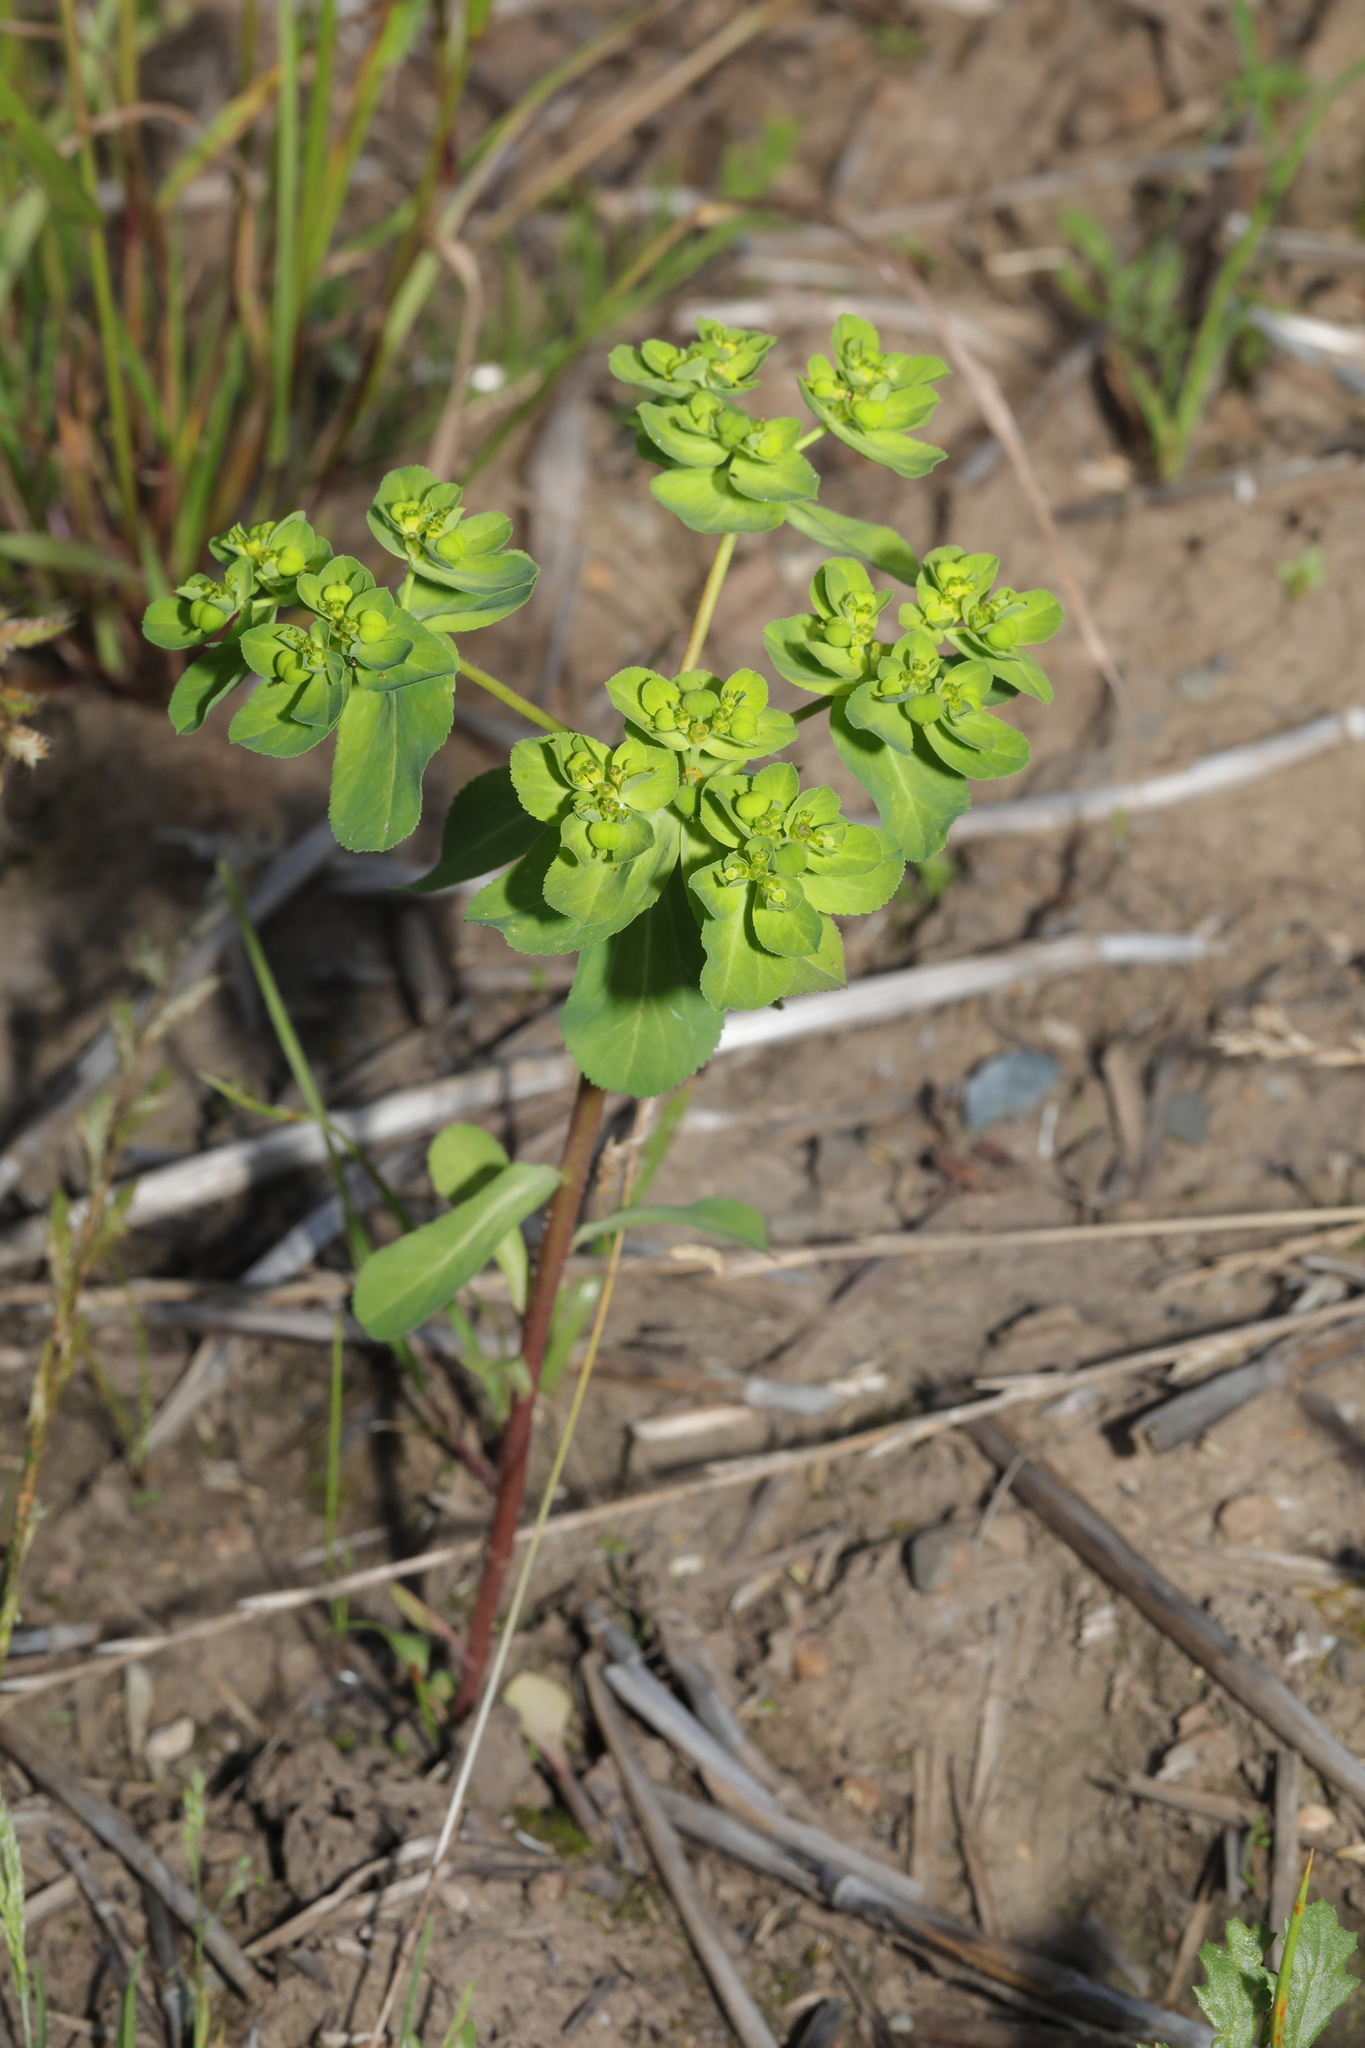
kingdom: Plantae
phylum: Tracheophyta
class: Magnoliopsida
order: Malpighiales
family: Euphorbiaceae
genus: Euphorbia
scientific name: Euphorbia helioscopia
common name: Sun spurge
